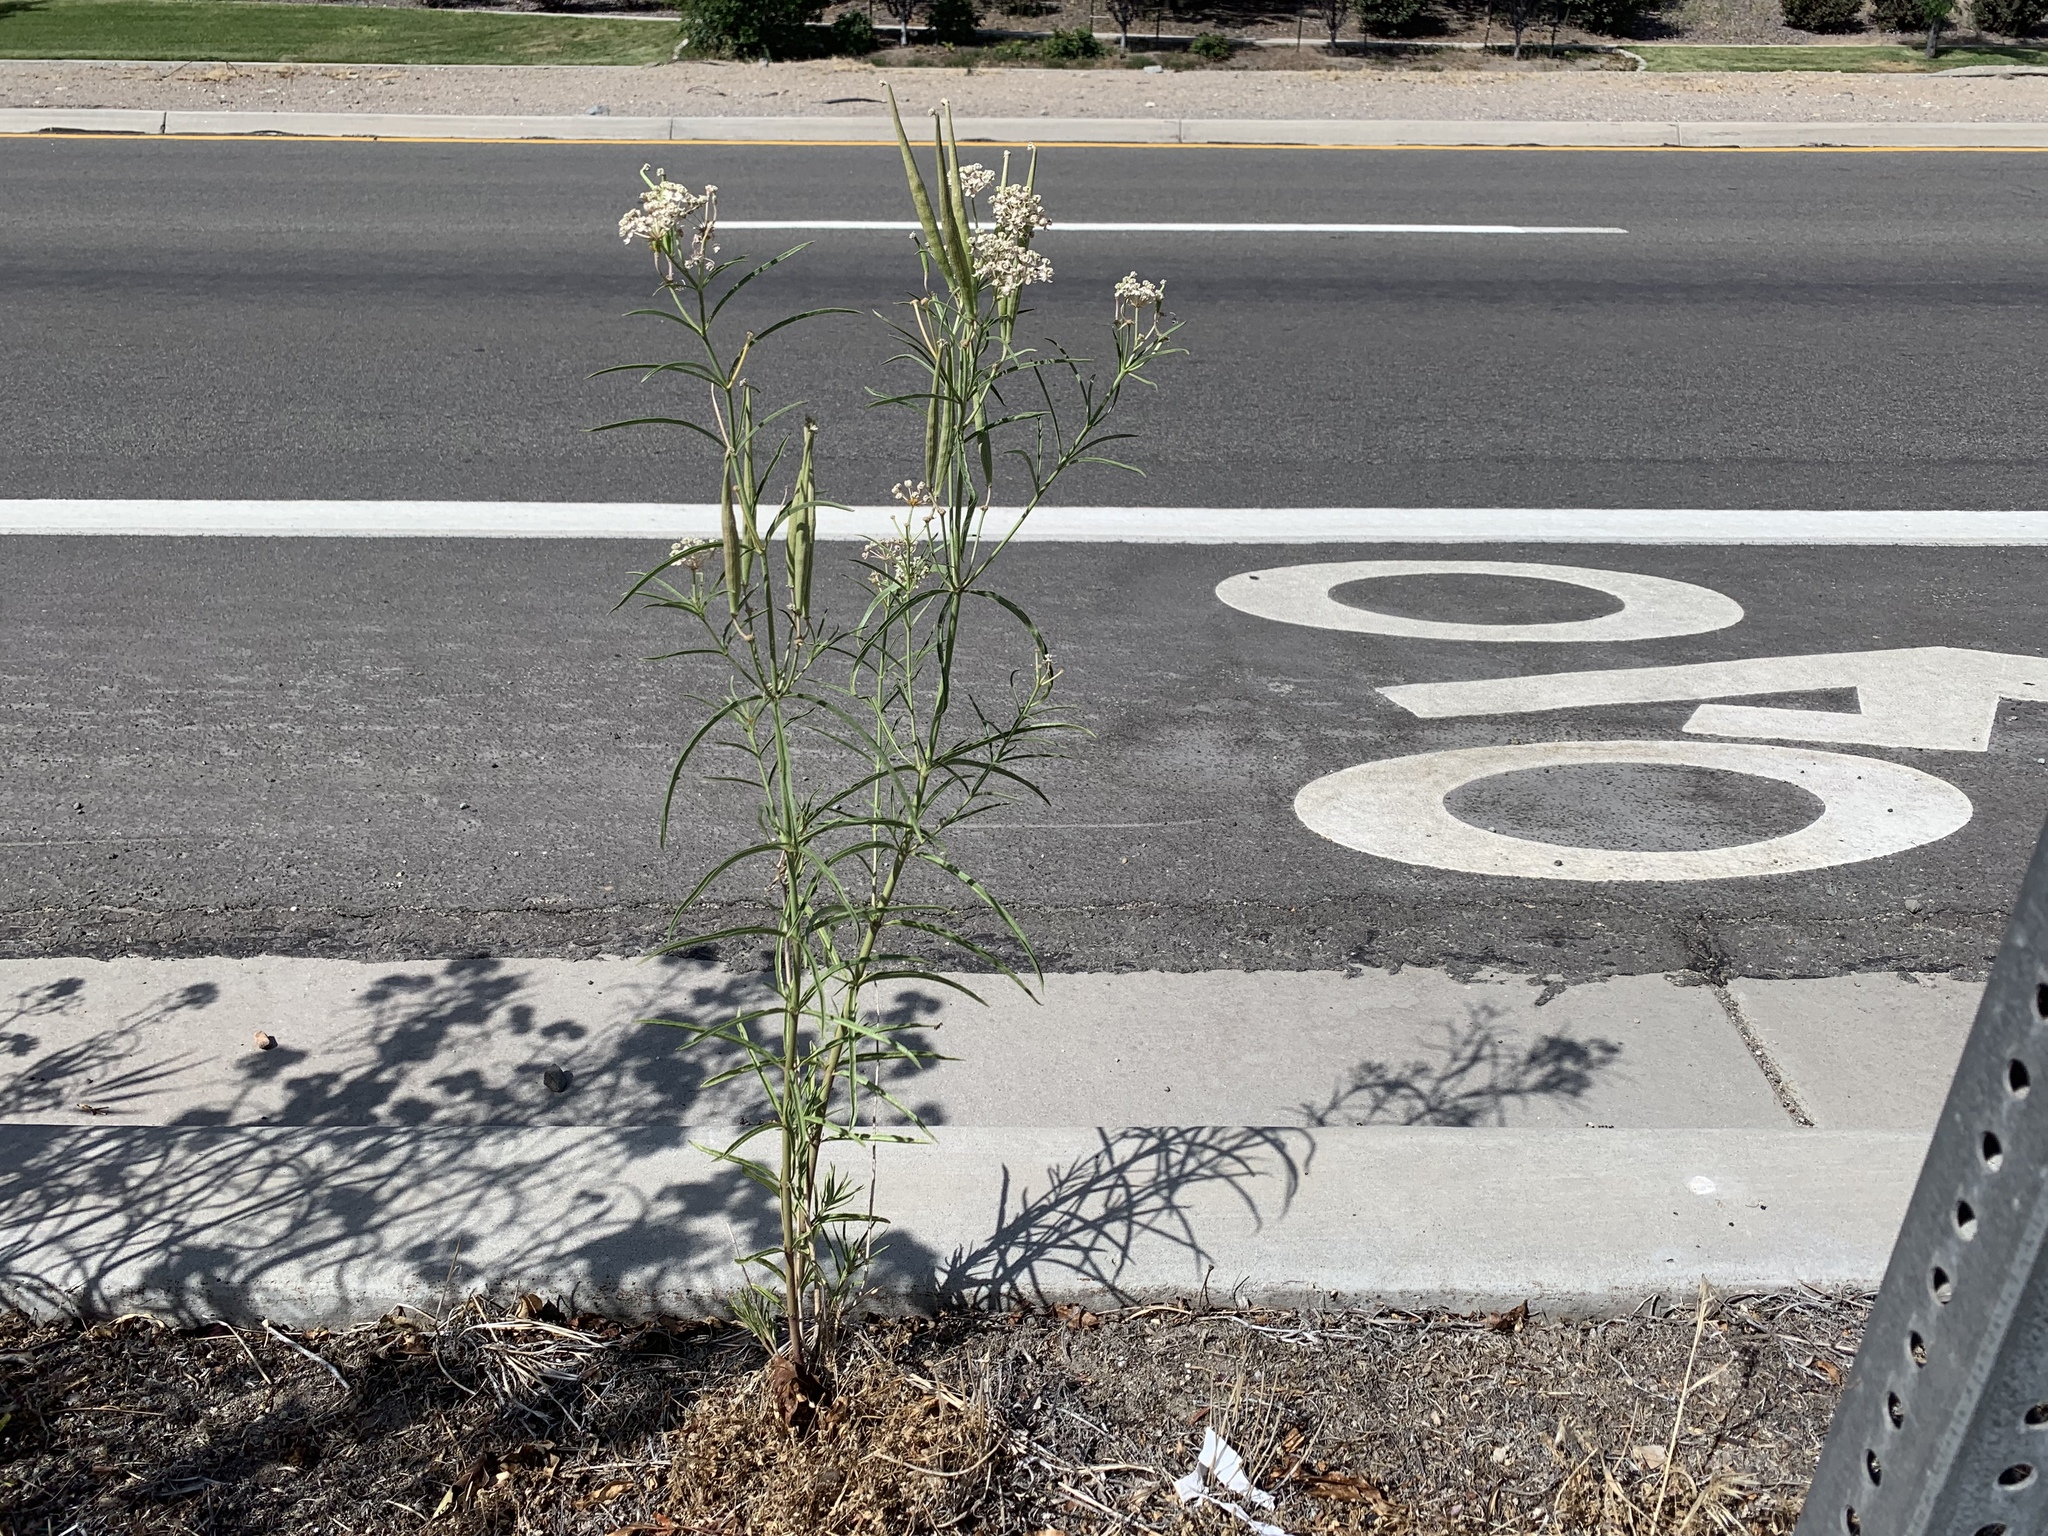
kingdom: Plantae
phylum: Tracheophyta
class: Magnoliopsida
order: Gentianales
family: Apocynaceae
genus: Asclepias
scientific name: Asclepias fascicularis
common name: Mexican milkweed
